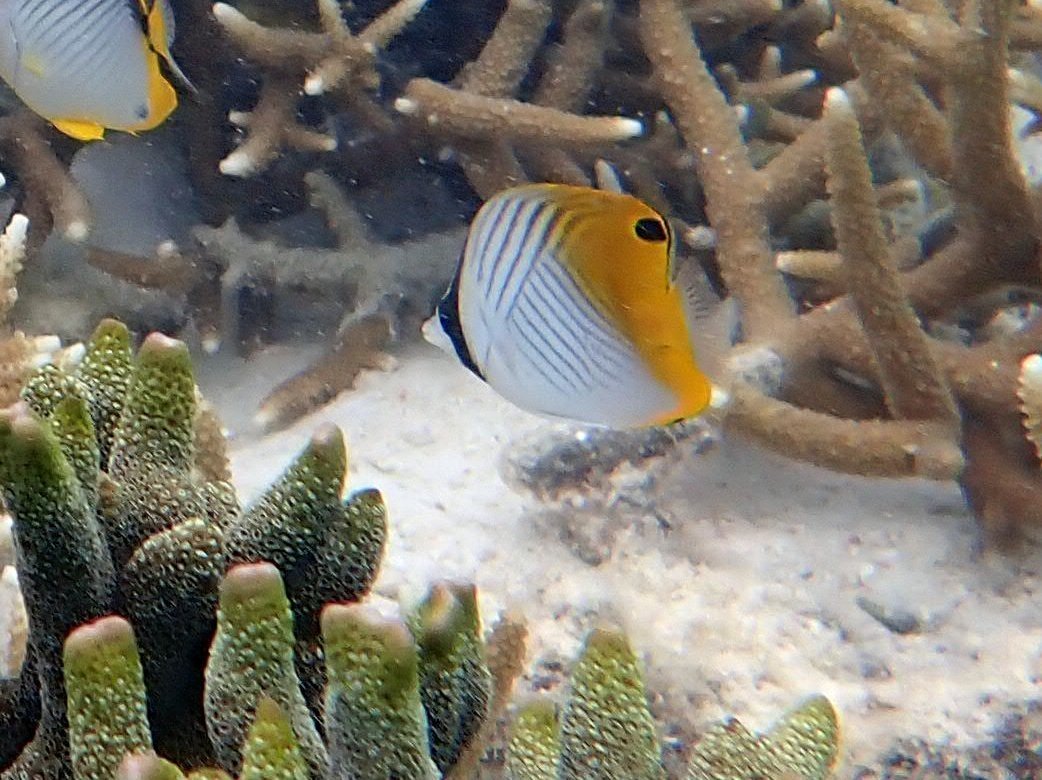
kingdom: Animalia
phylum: Chordata
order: Perciformes
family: Chaetodontidae
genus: Chaetodon
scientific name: Chaetodon auriga
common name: Threadfin butterflyfish
